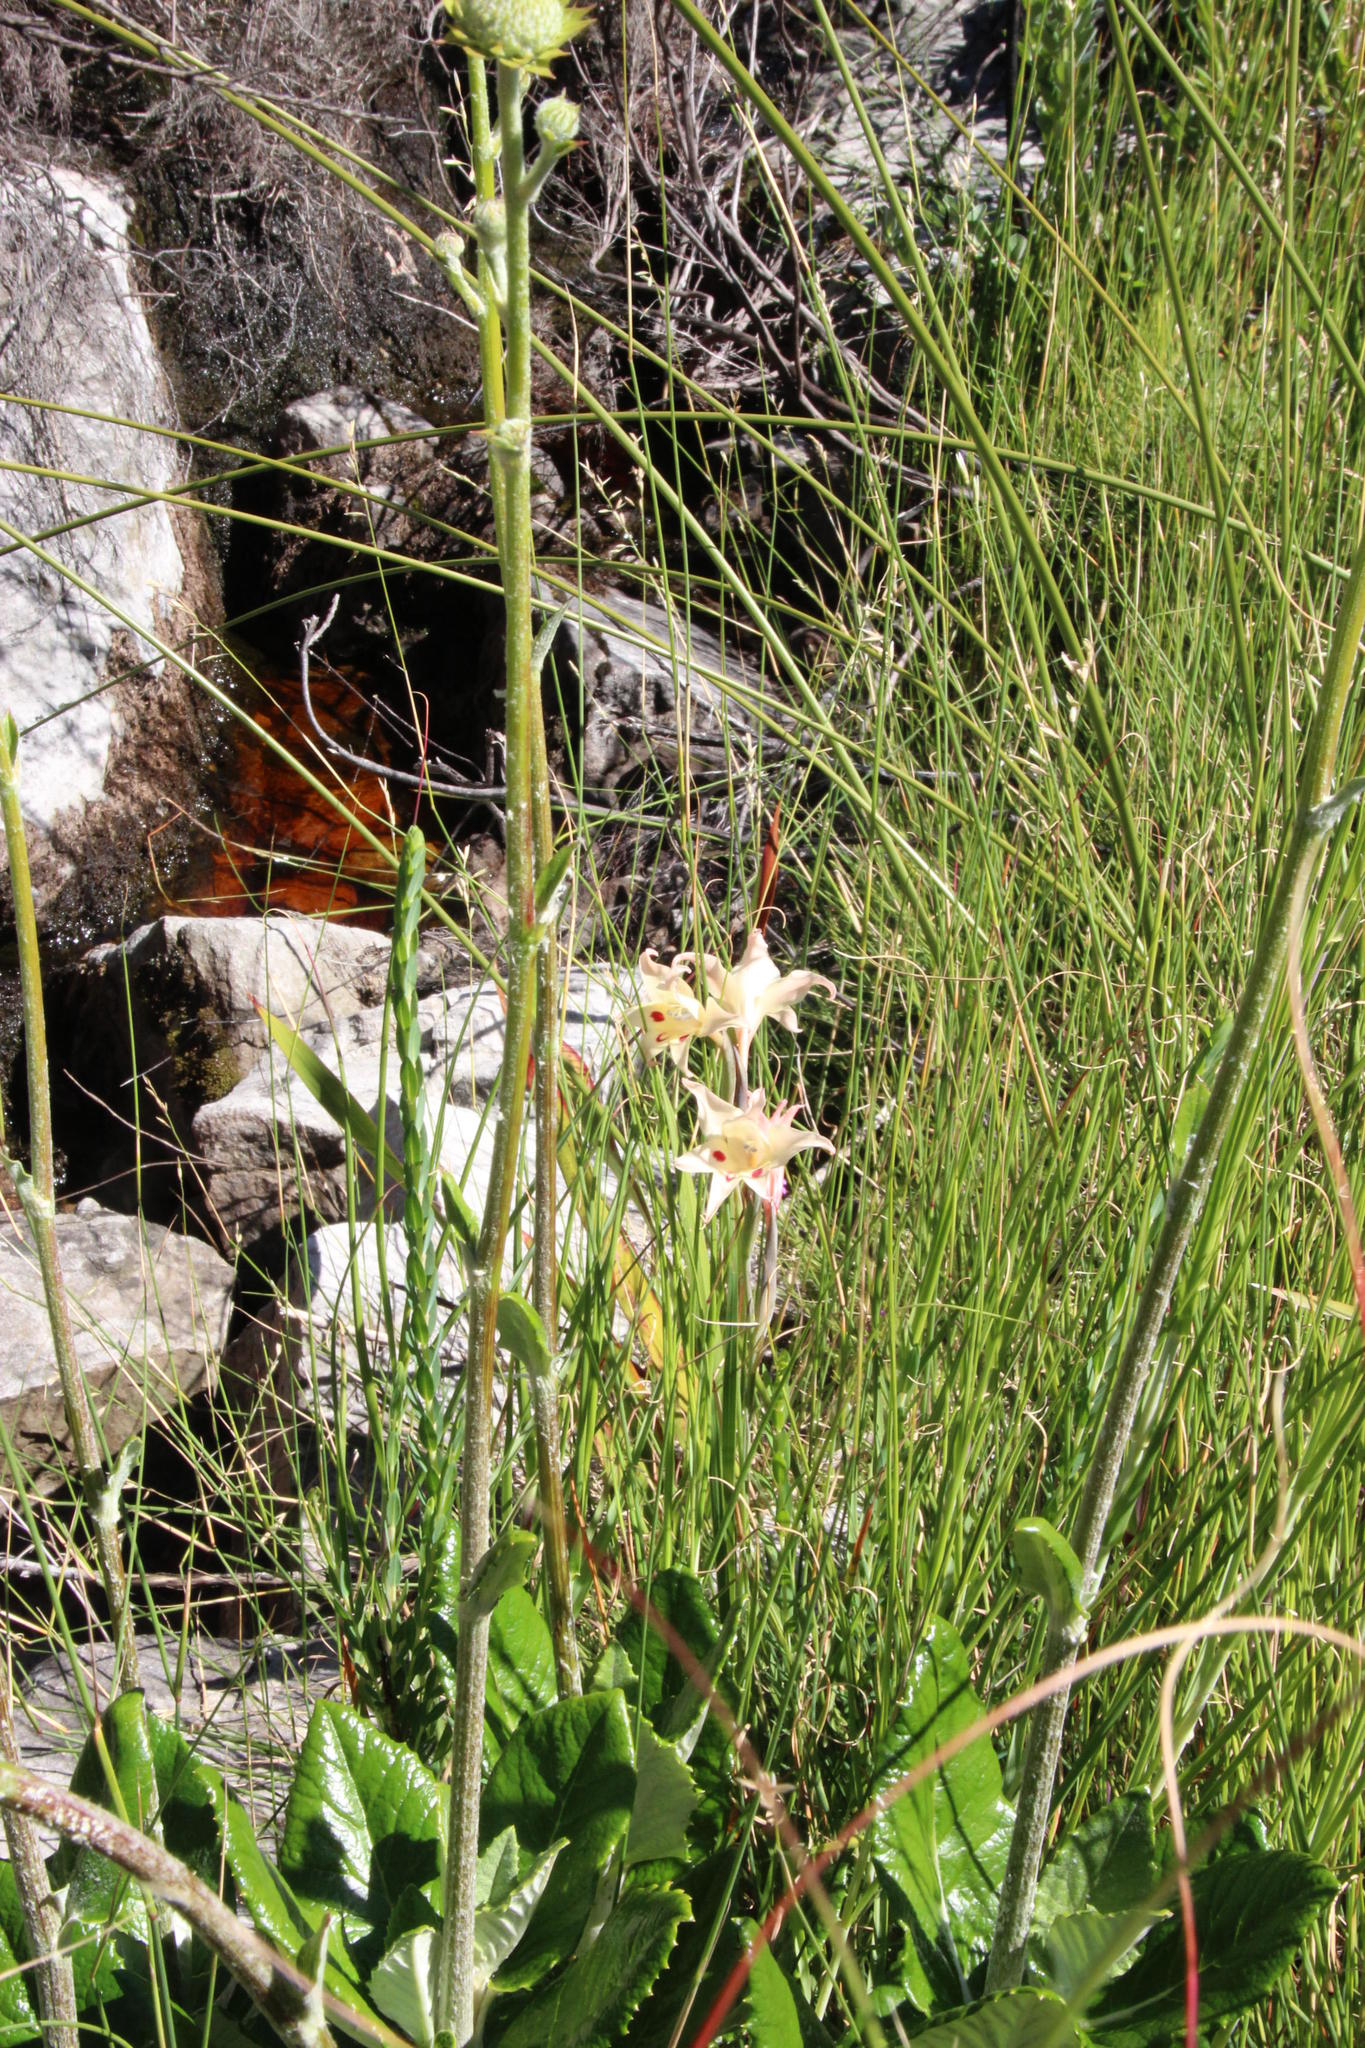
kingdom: Plantae
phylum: Tracheophyta
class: Liliopsida
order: Asparagales
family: Iridaceae
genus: Gladiolus
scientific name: Gladiolus undulatus
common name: Large painted-lady
